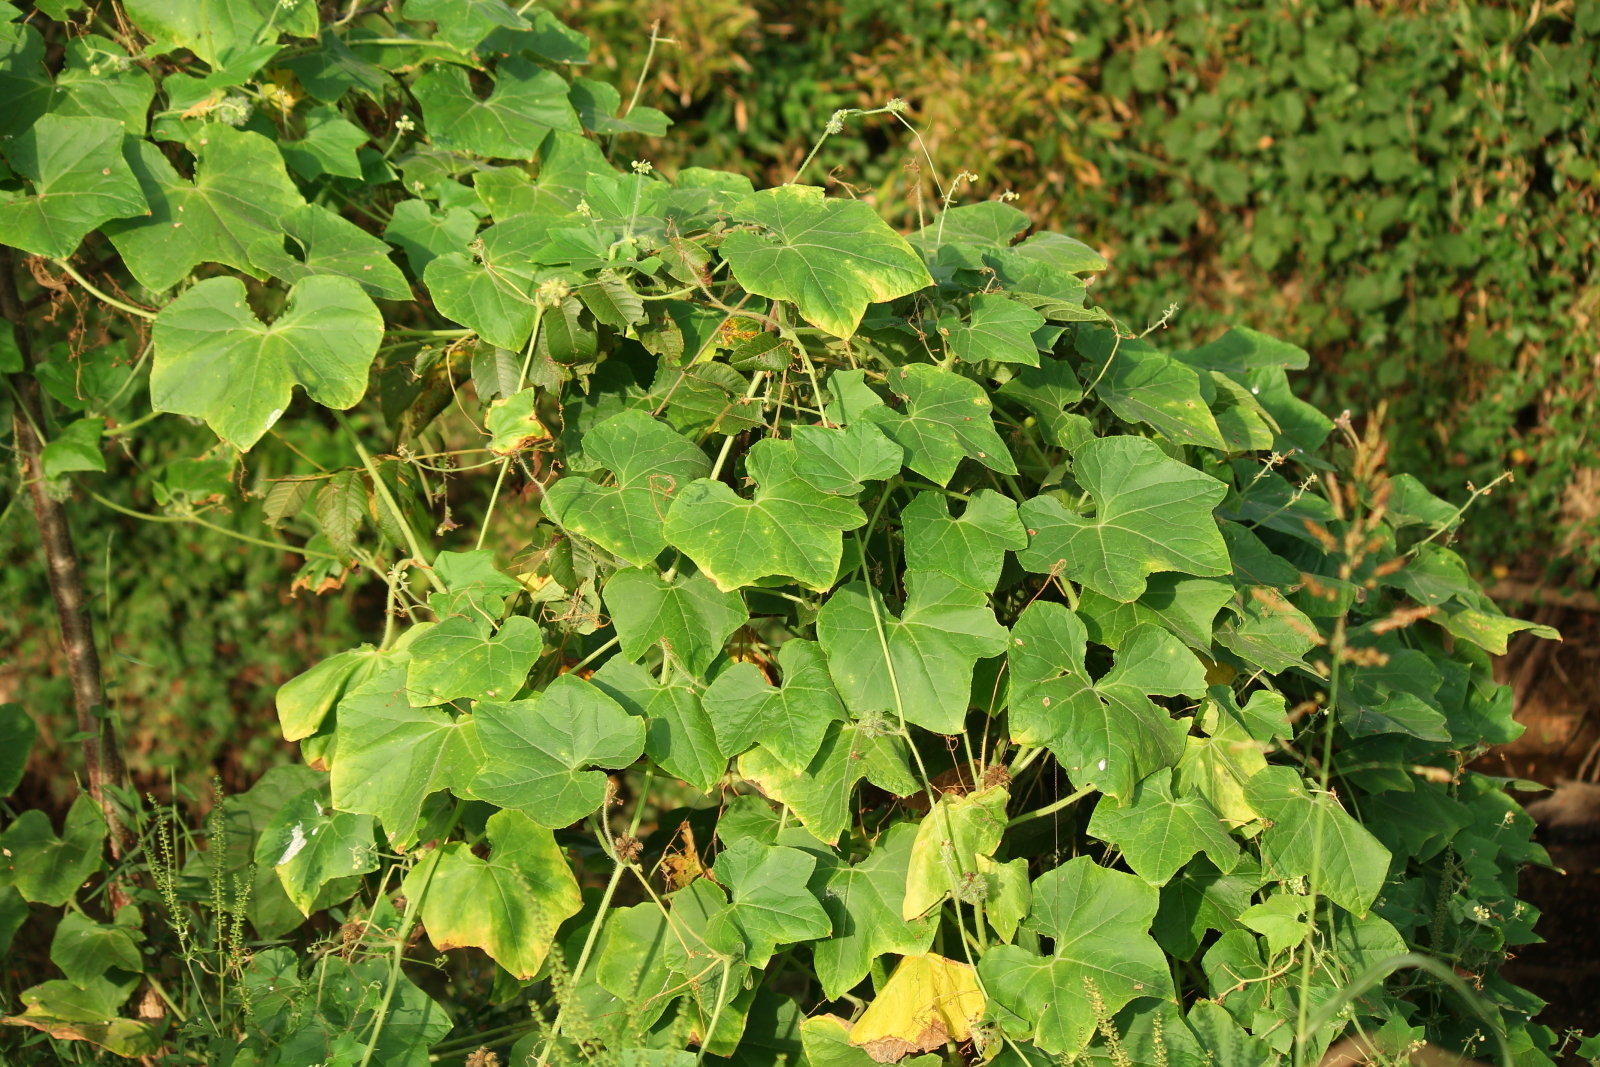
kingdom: Plantae
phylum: Tracheophyta
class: Magnoliopsida
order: Cucurbitales
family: Cucurbitaceae
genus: Sicyos
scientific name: Sicyos angulatus
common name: Angled burr cucumber
